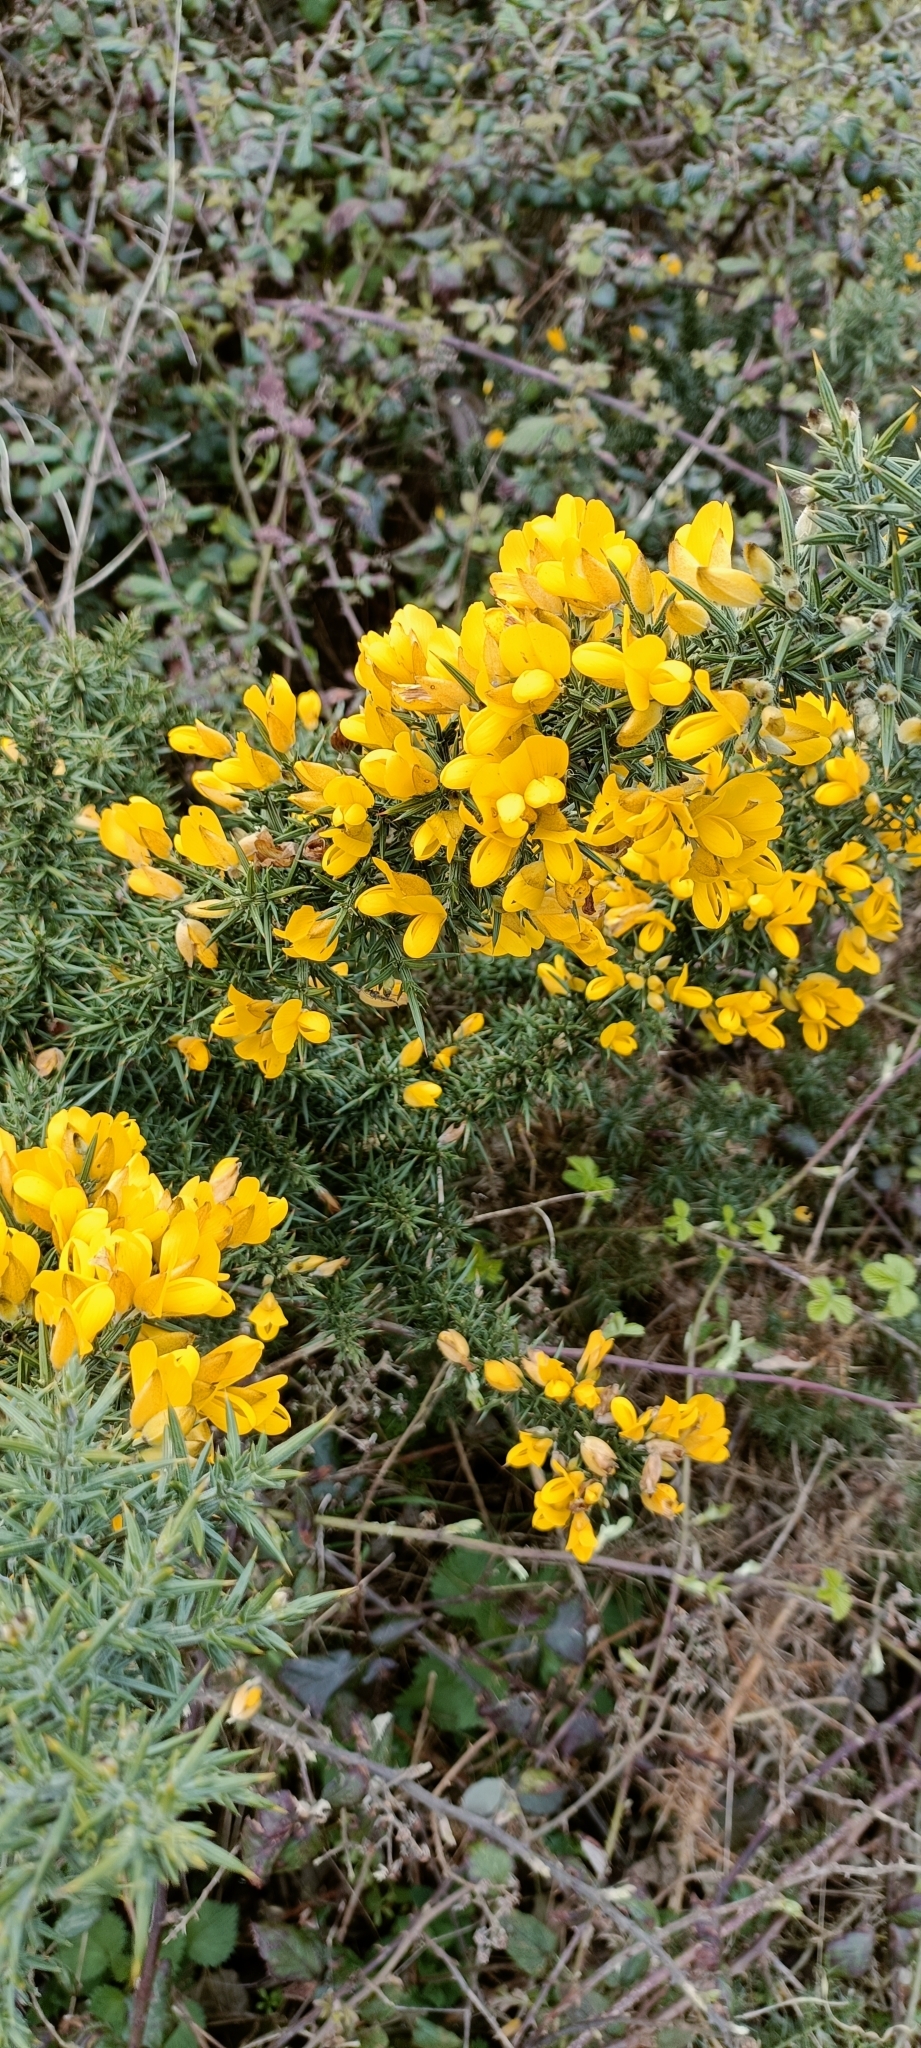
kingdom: Plantae
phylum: Tracheophyta
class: Magnoliopsida
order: Fabales
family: Fabaceae
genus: Ulex
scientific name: Ulex europaeus
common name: Common gorse
